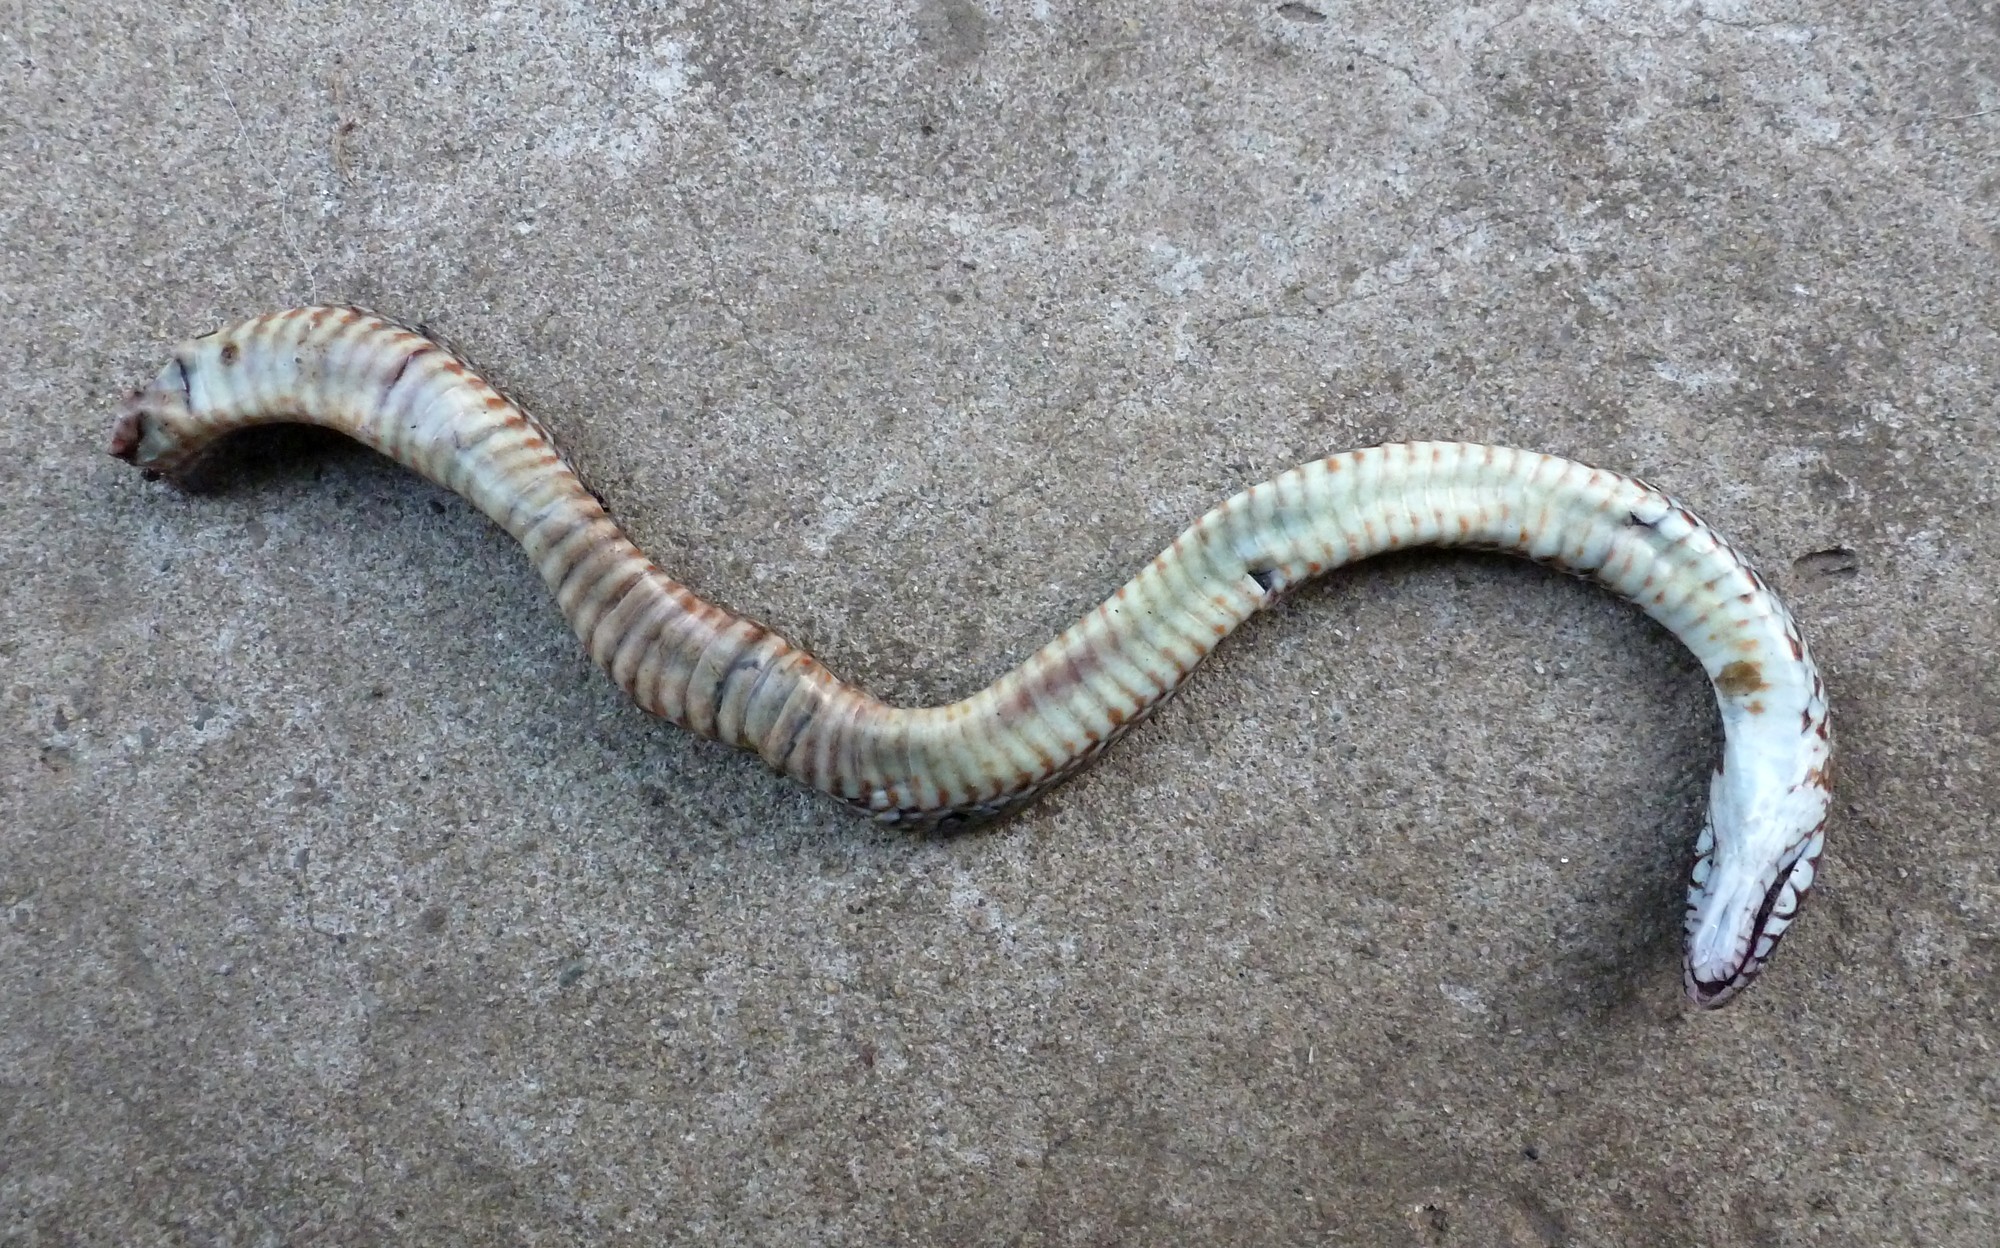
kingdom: Animalia
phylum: Chordata
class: Squamata
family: Colubridae
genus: Dolichophis
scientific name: Dolichophis caspius
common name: Large whip snake
